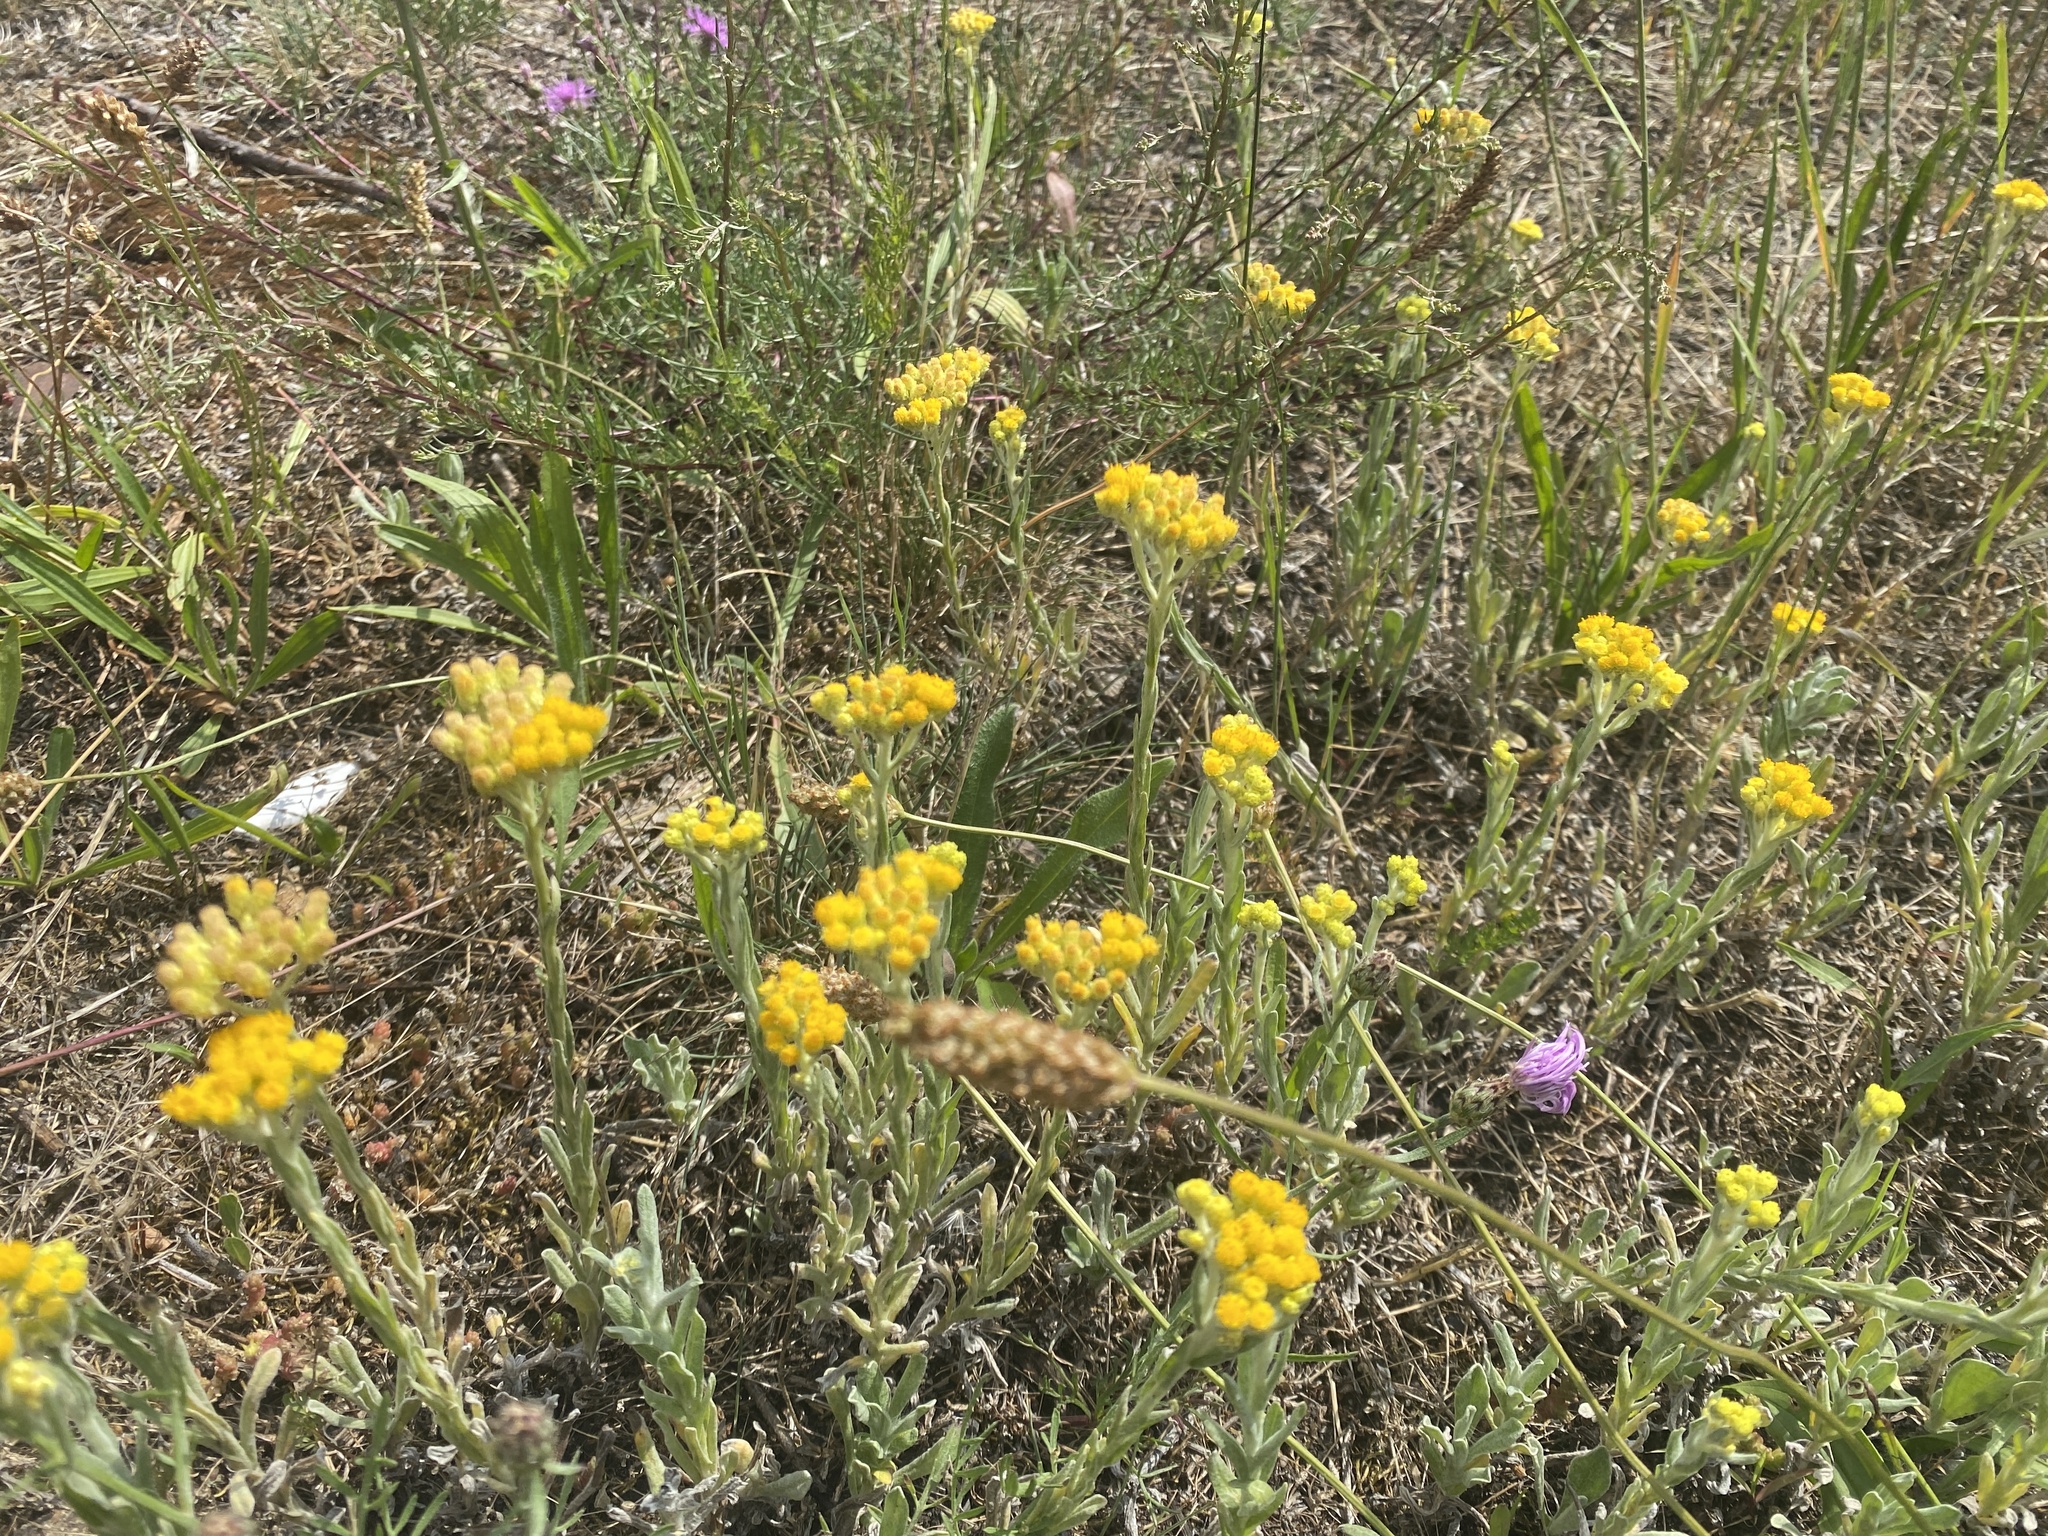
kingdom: Plantae
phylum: Tracheophyta
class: Magnoliopsida
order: Asterales
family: Asteraceae
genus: Helichrysum
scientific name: Helichrysum arenarium
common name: Strawflower
